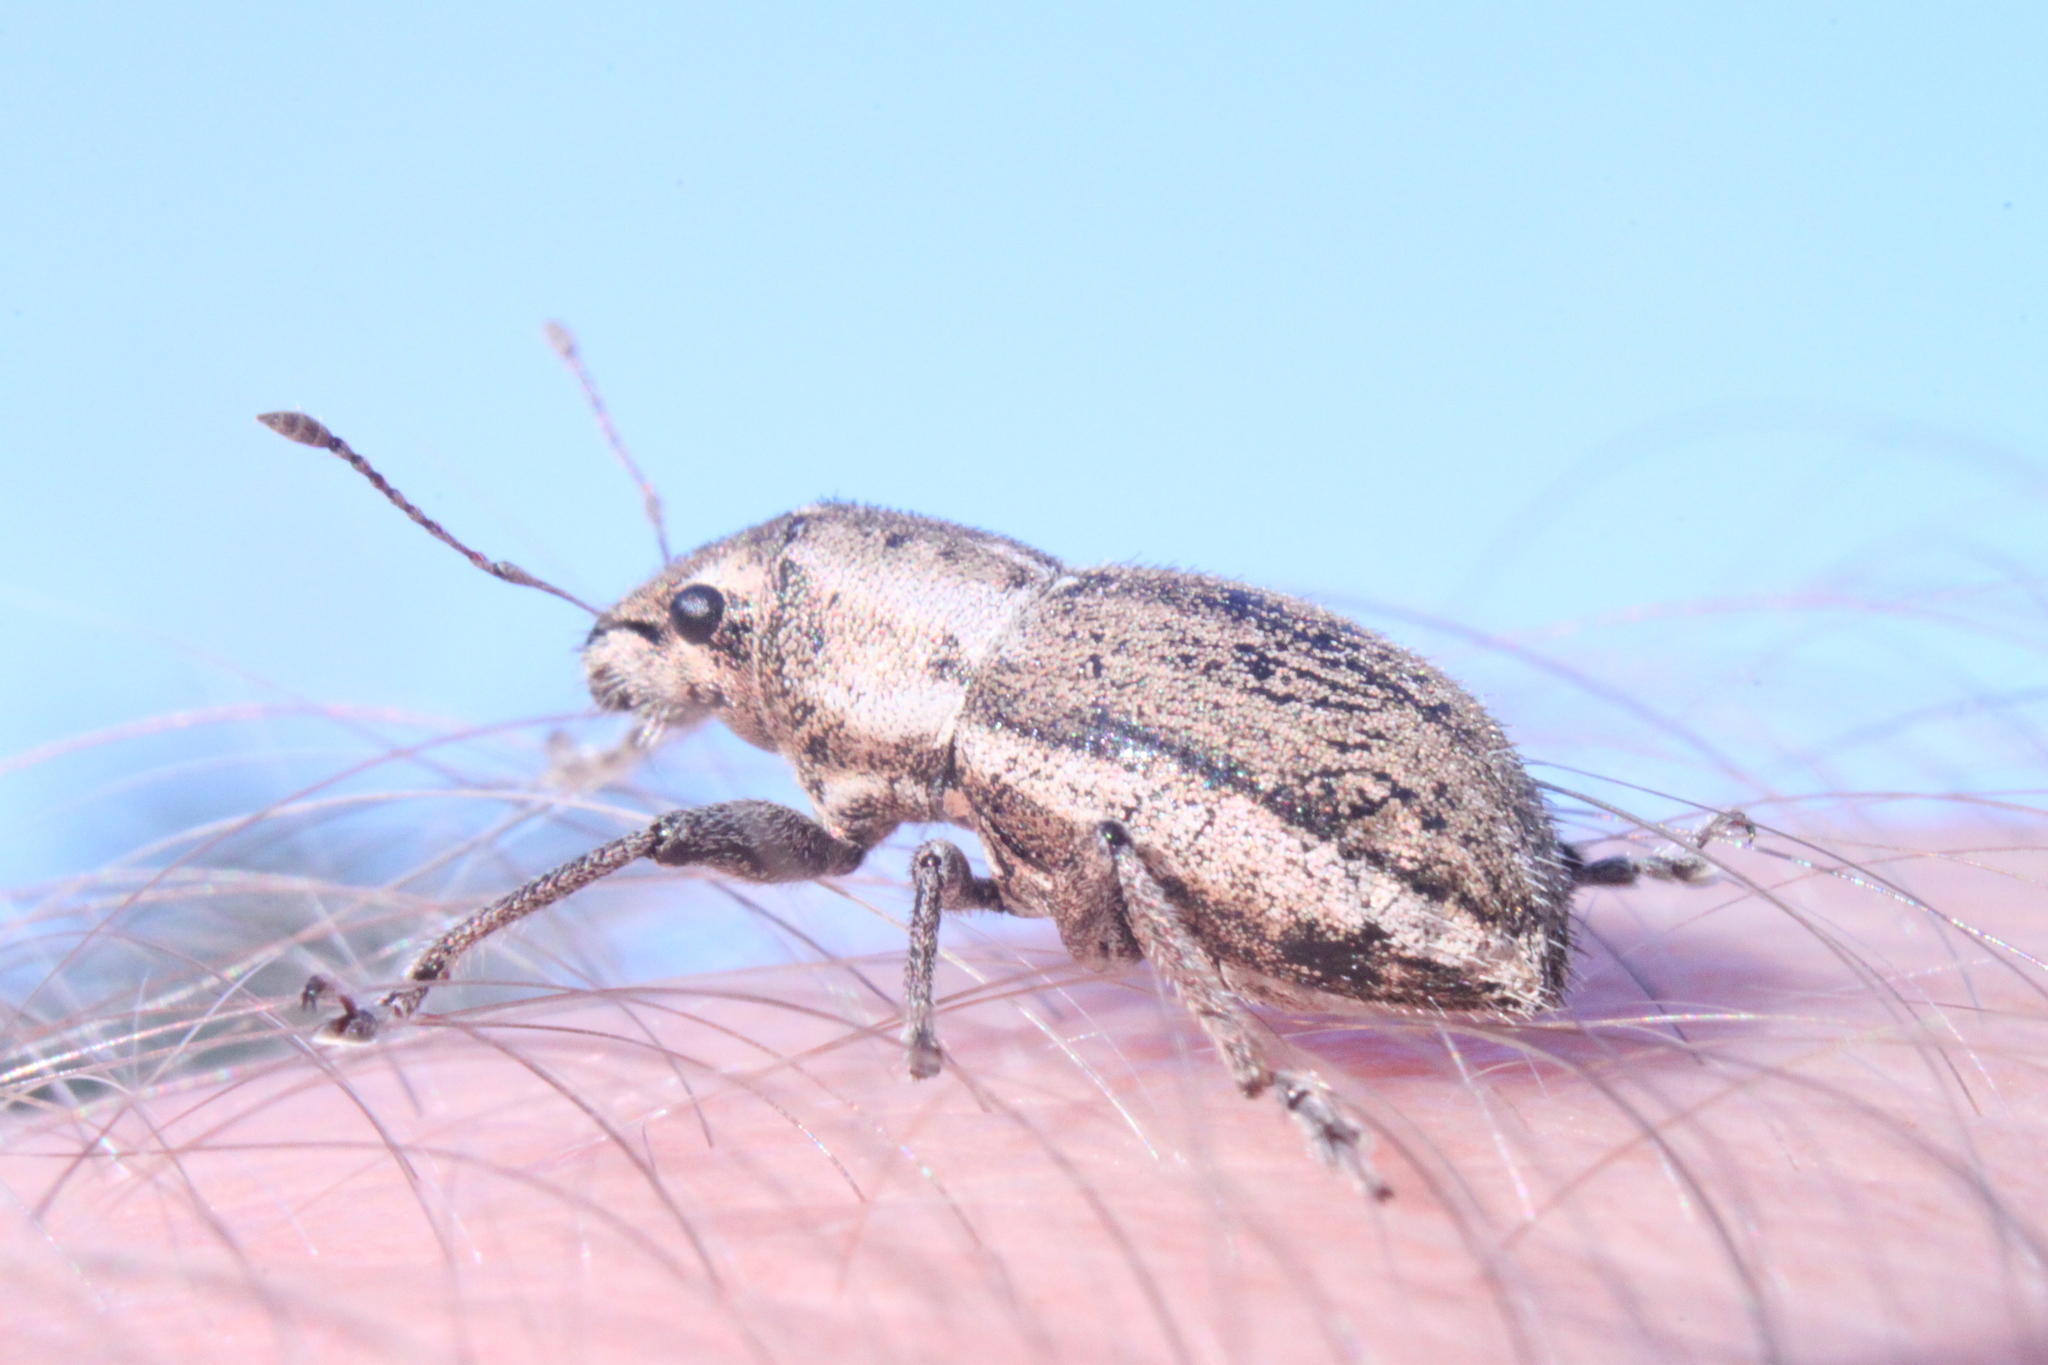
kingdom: Animalia
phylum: Arthropoda
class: Insecta
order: Coleoptera
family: Curculionidae
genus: Naupactus
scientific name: Naupactus peregrinus
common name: Whitefringed beetle
